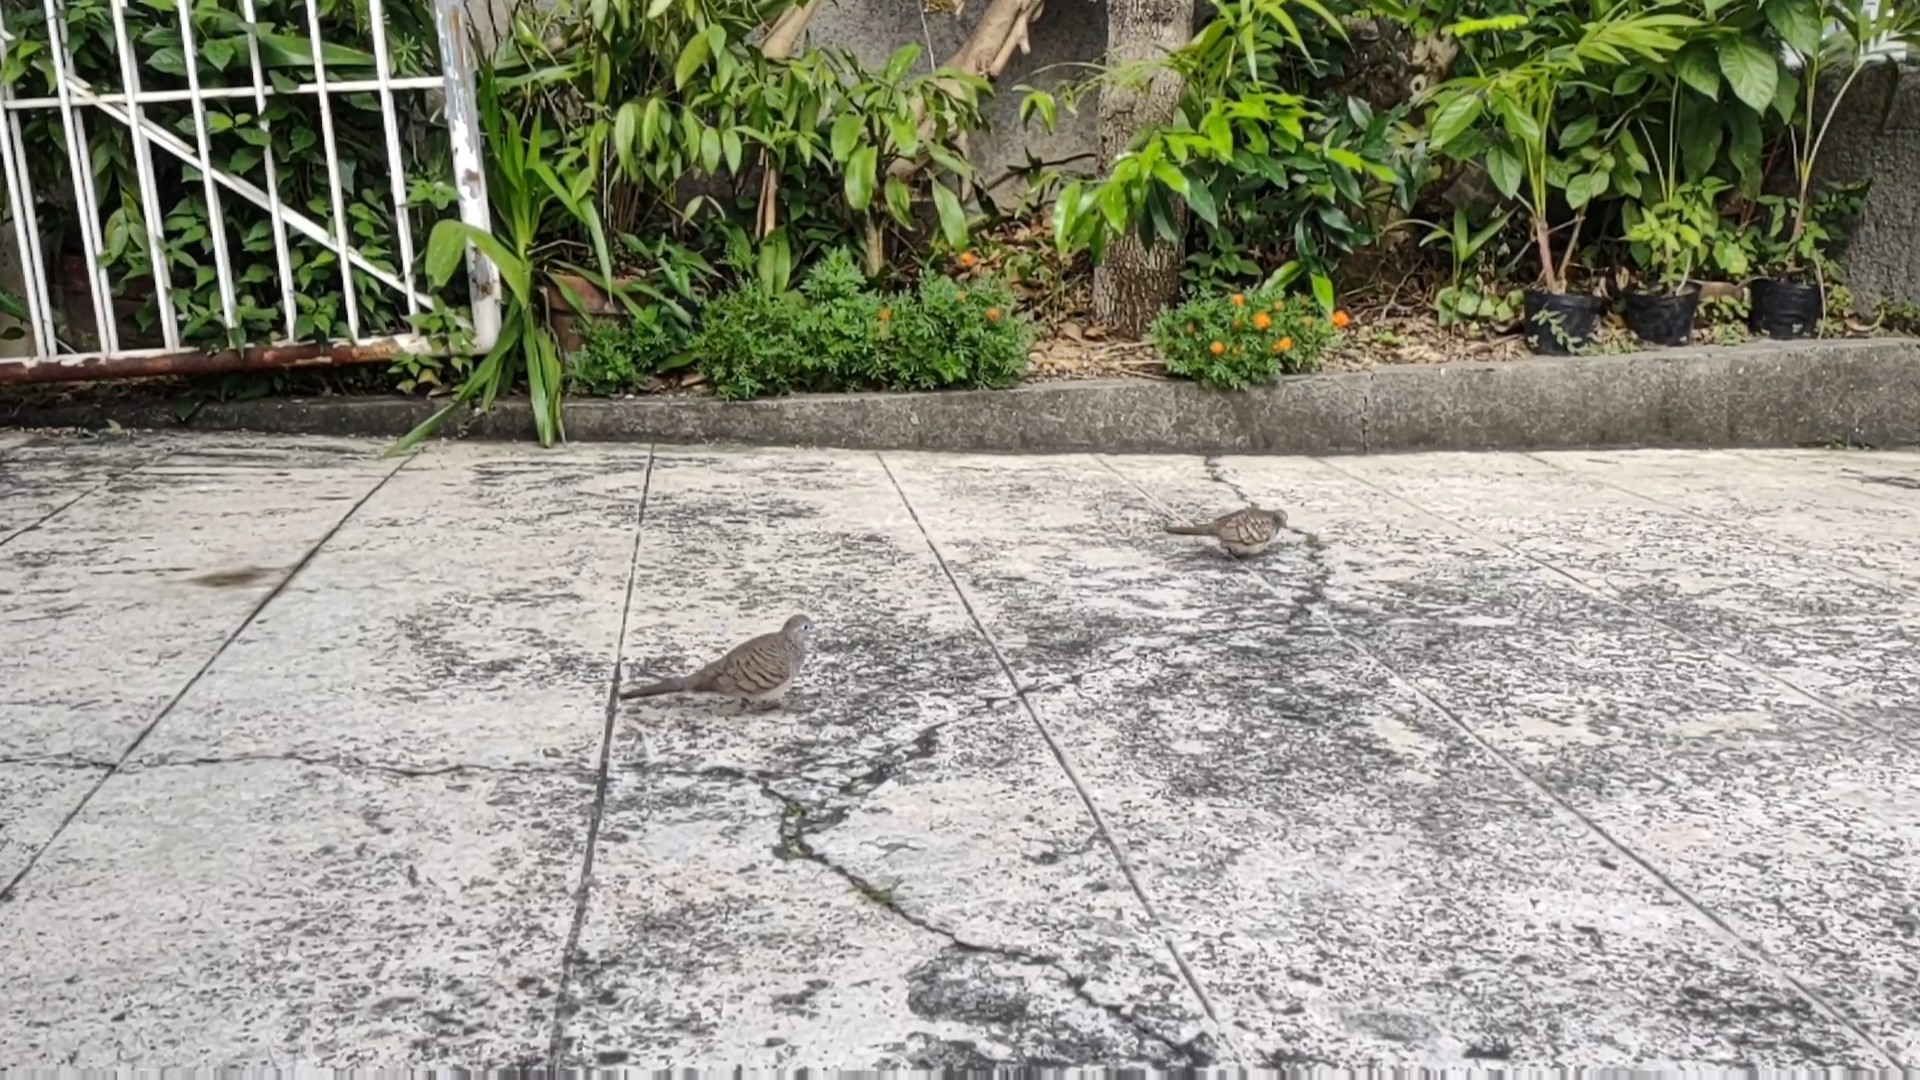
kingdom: Animalia
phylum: Chordata
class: Aves
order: Columbiformes
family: Columbidae
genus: Geopelia
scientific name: Geopelia striata
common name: Zebra dove
